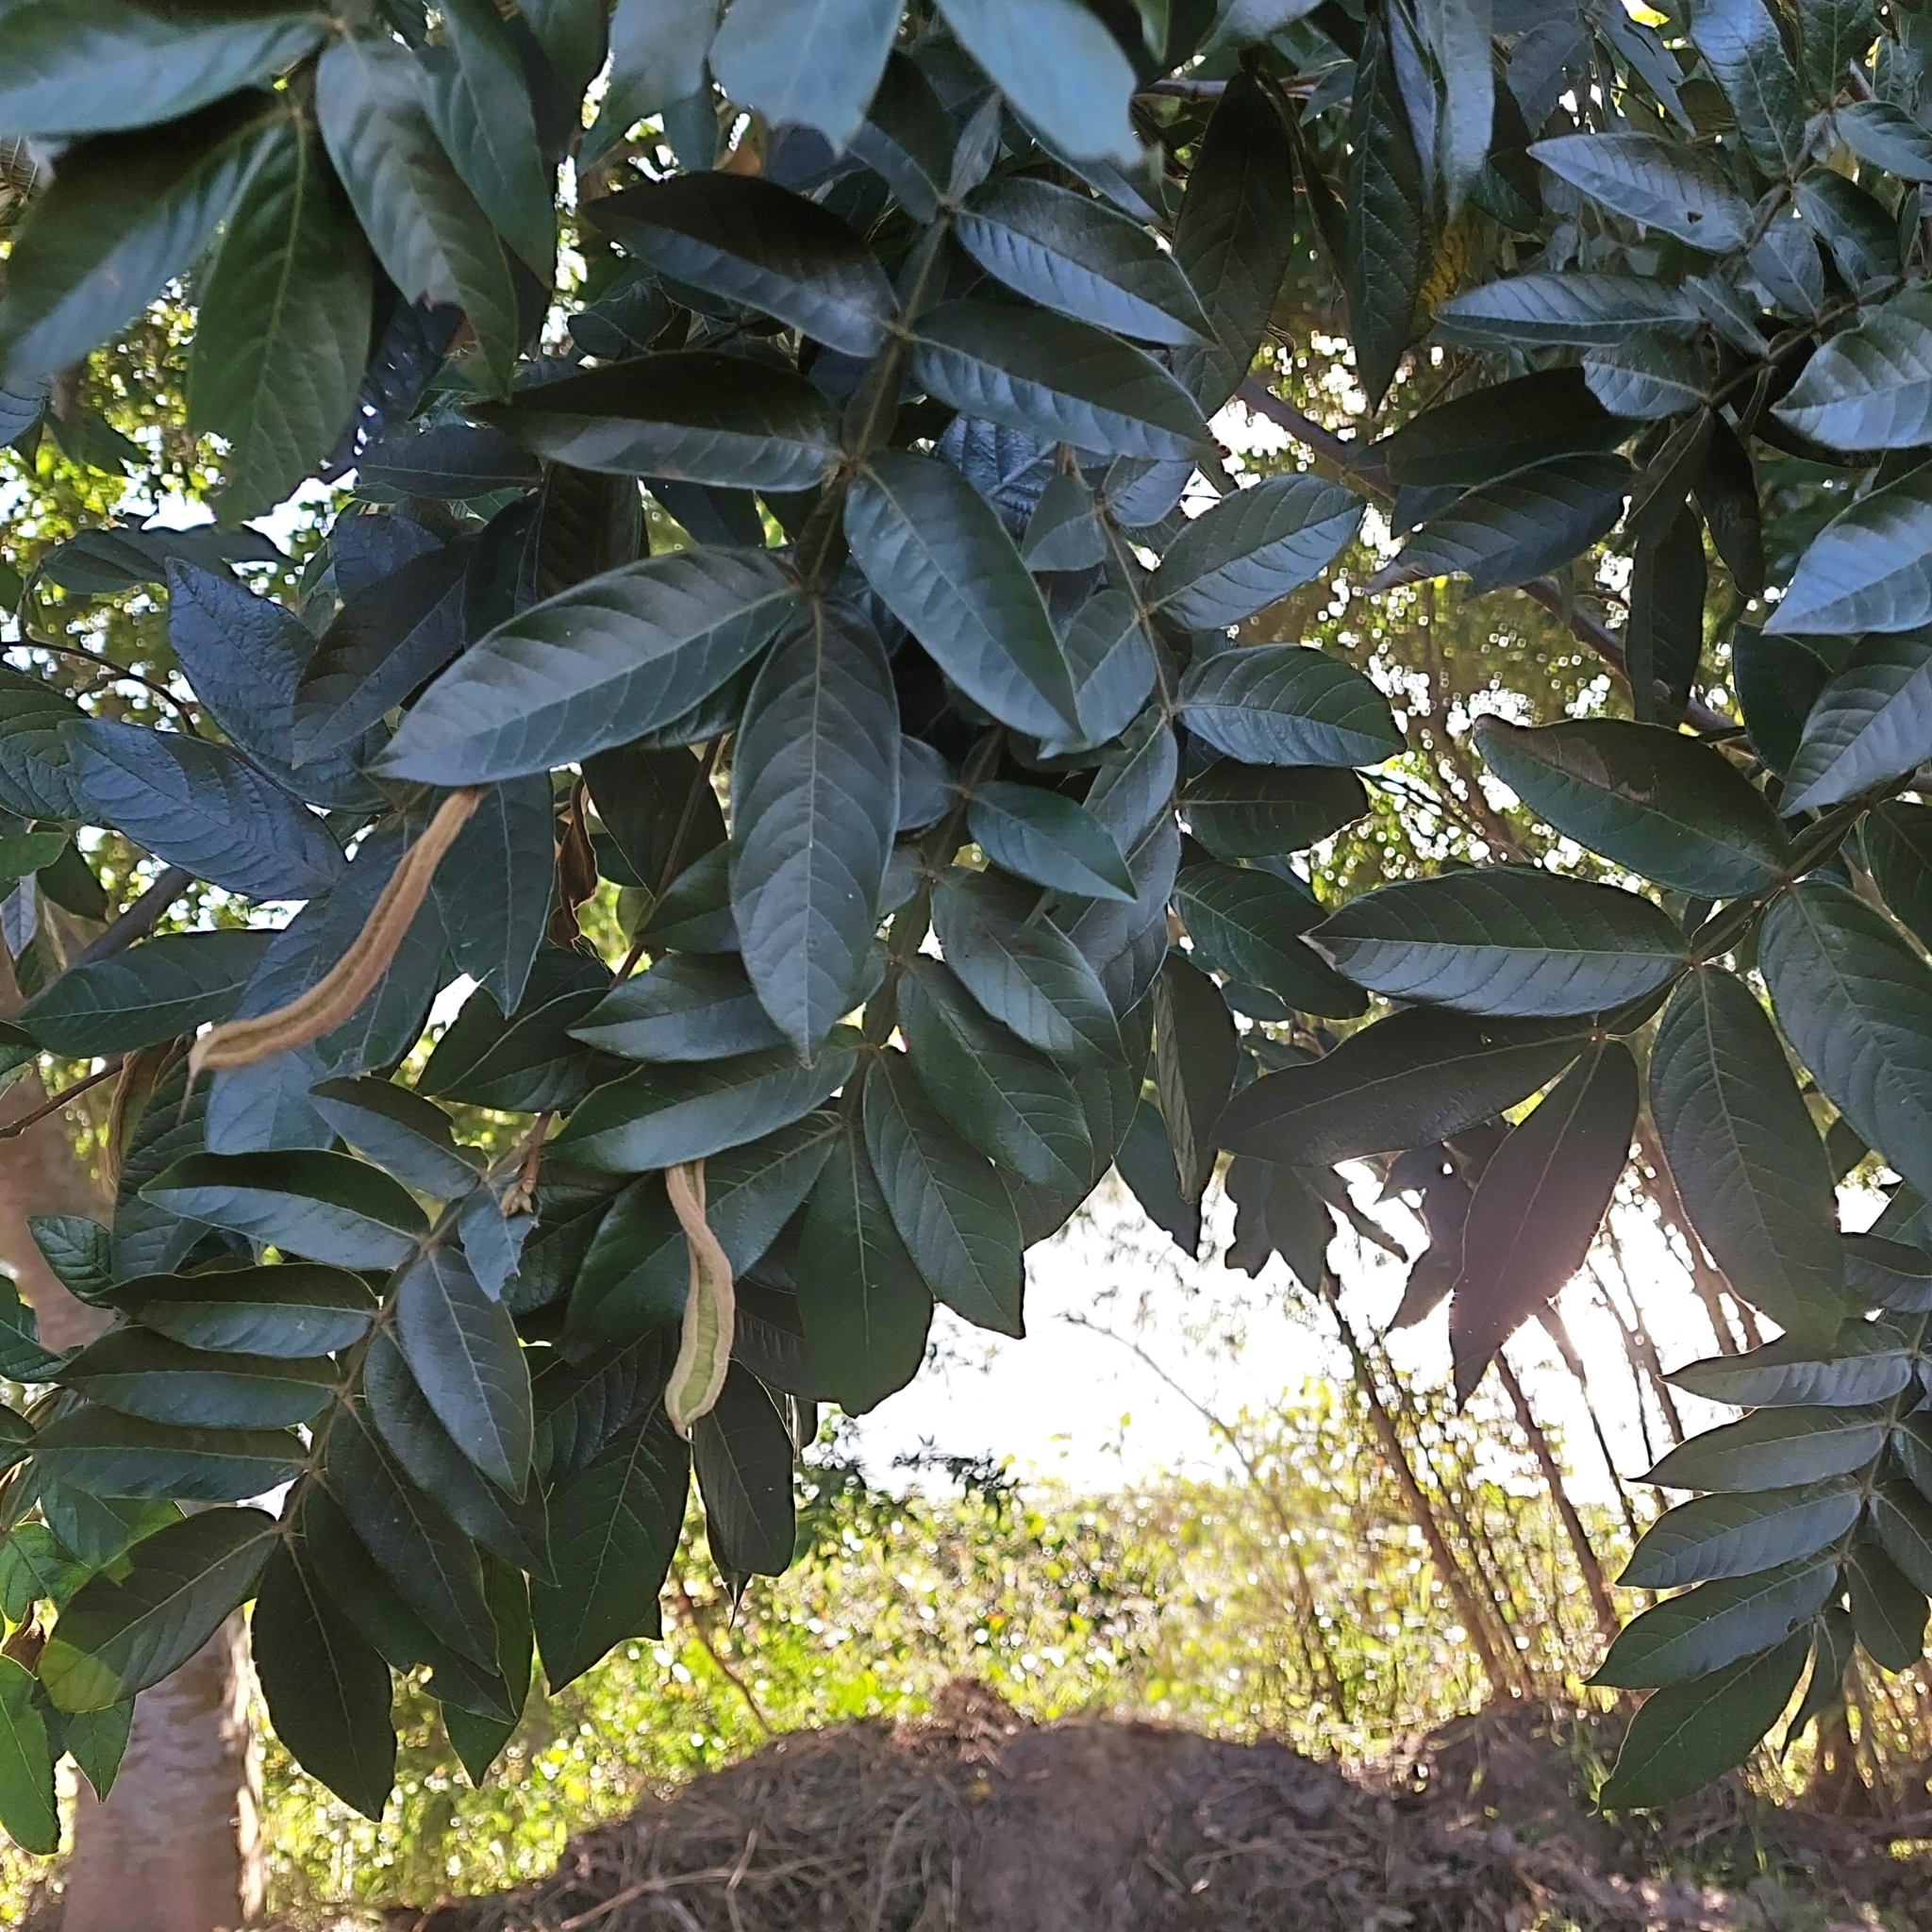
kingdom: Plantae
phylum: Tracheophyta
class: Magnoliopsida
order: Fabales
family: Fabaceae
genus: Inga
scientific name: Inga uraguensis
